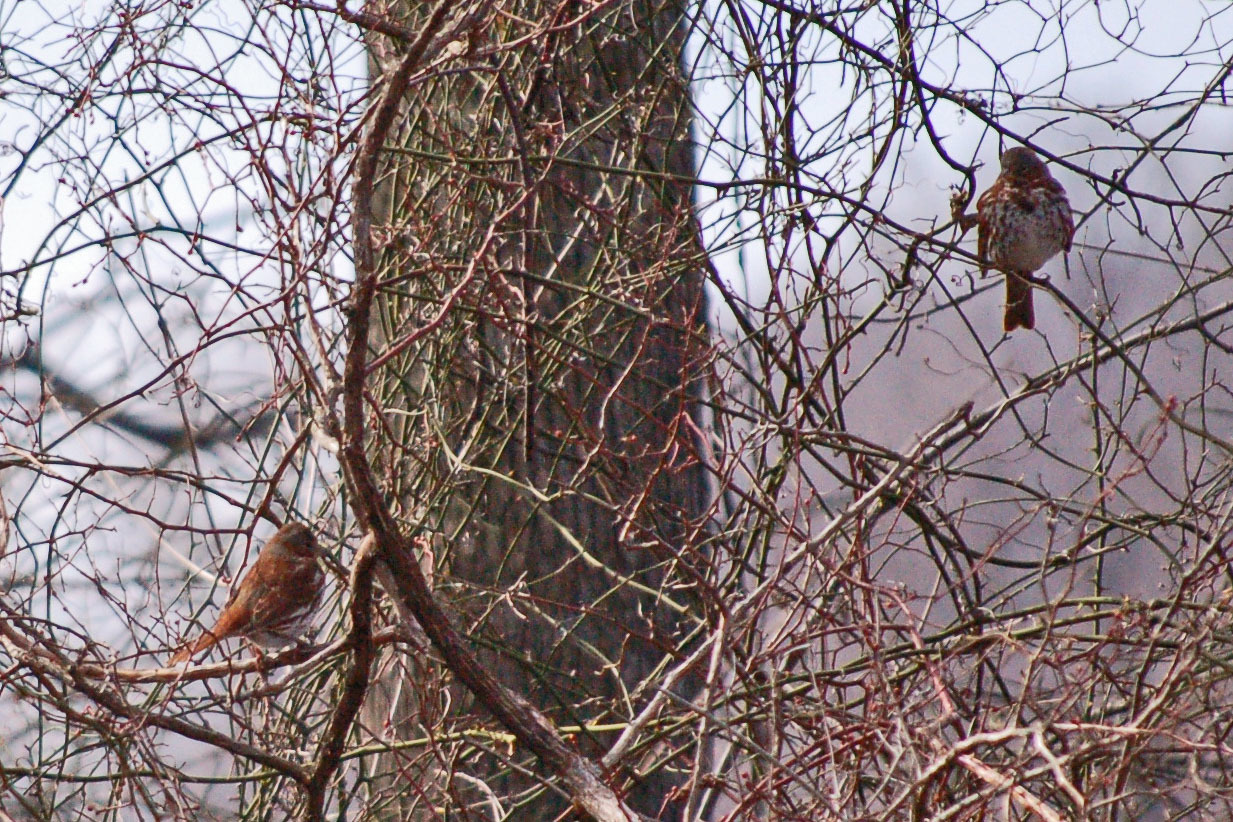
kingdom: Animalia
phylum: Chordata
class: Aves
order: Passeriformes
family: Passerellidae
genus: Passerella
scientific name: Passerella iliaca
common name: Fox sparrow
